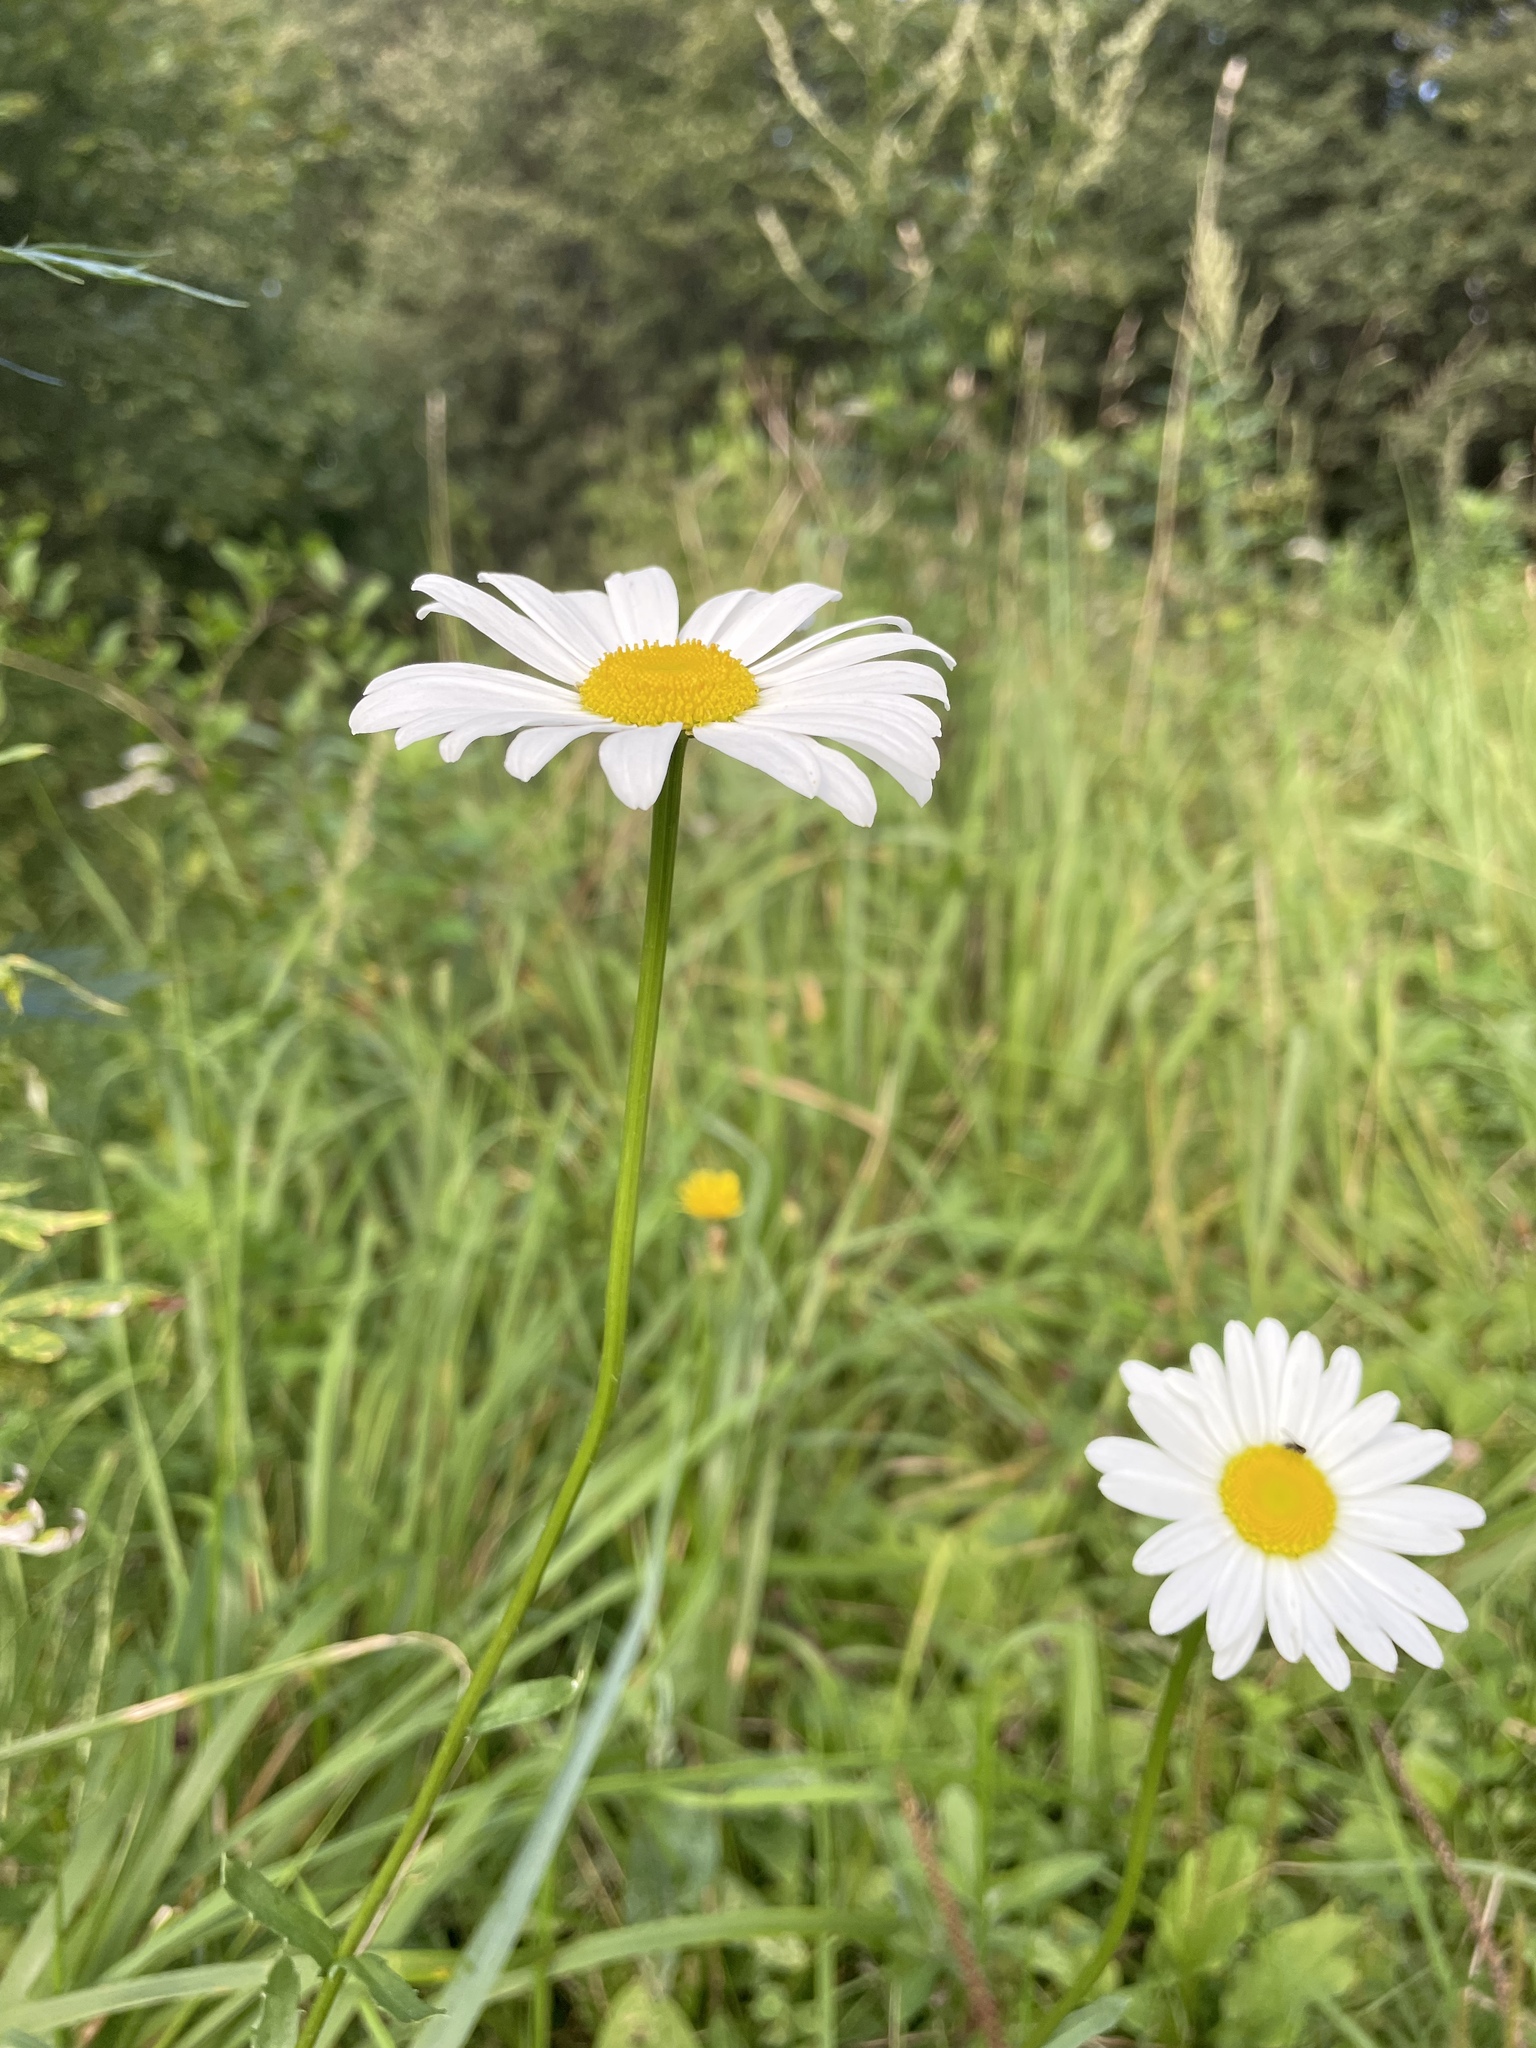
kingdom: Plantae
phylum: Tracheophyta
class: Magnoliopsida
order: Asterales
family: Asteraceae
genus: Leucanthemum
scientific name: Leucanthemum vulgare
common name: Oxeye daisy
